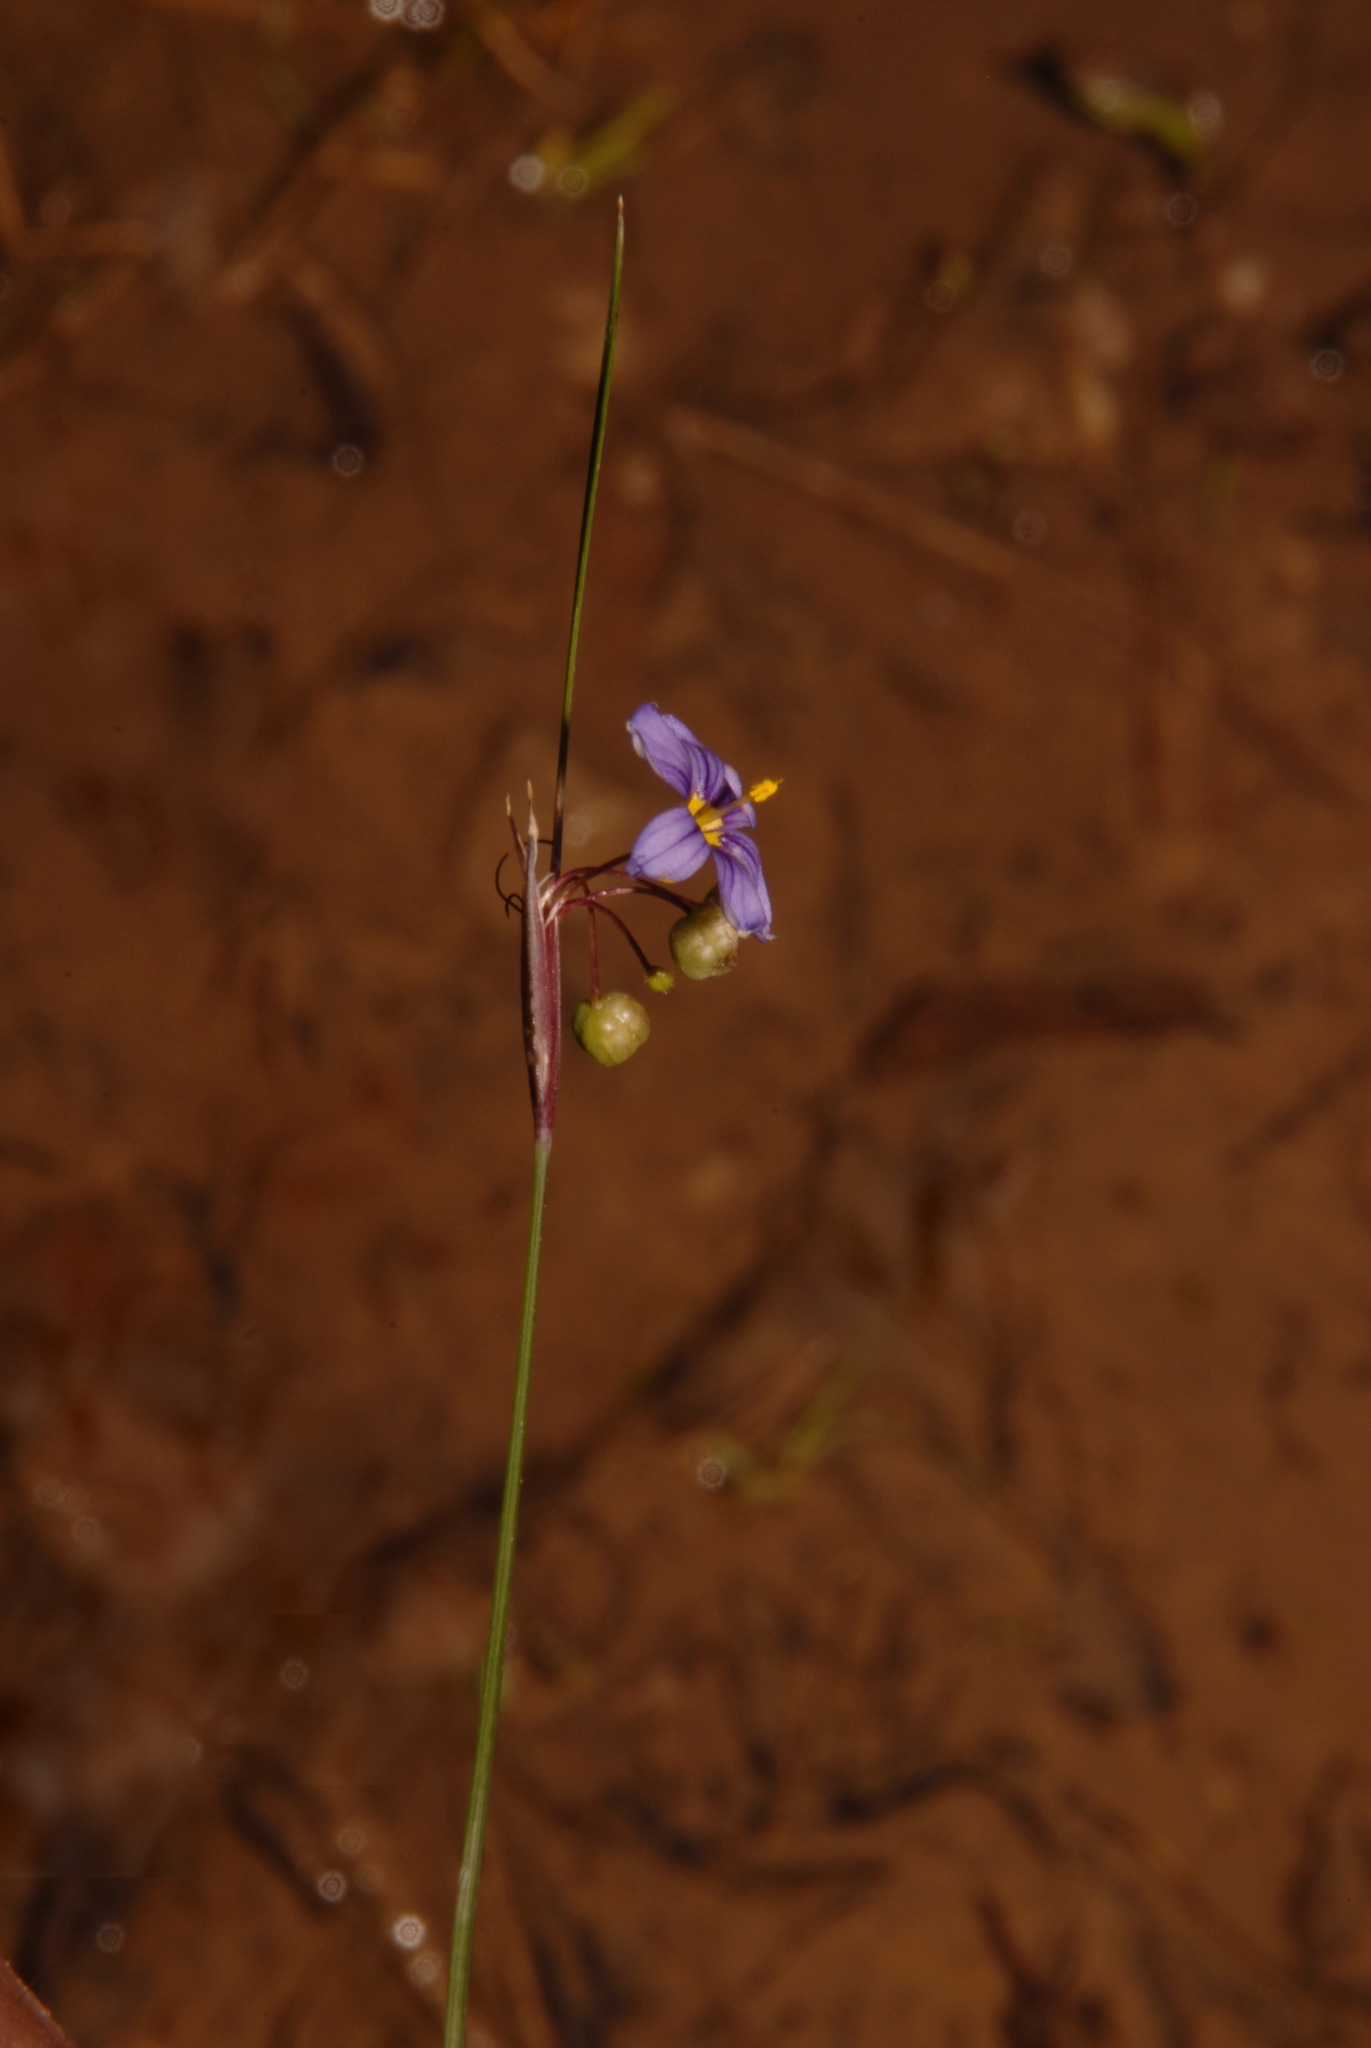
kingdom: Plantae
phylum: Tracheophyta
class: Liliopsida
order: Asparagales
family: Iridaceae
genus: Sisyrinchium
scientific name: Sisyrinchium calciphilum
